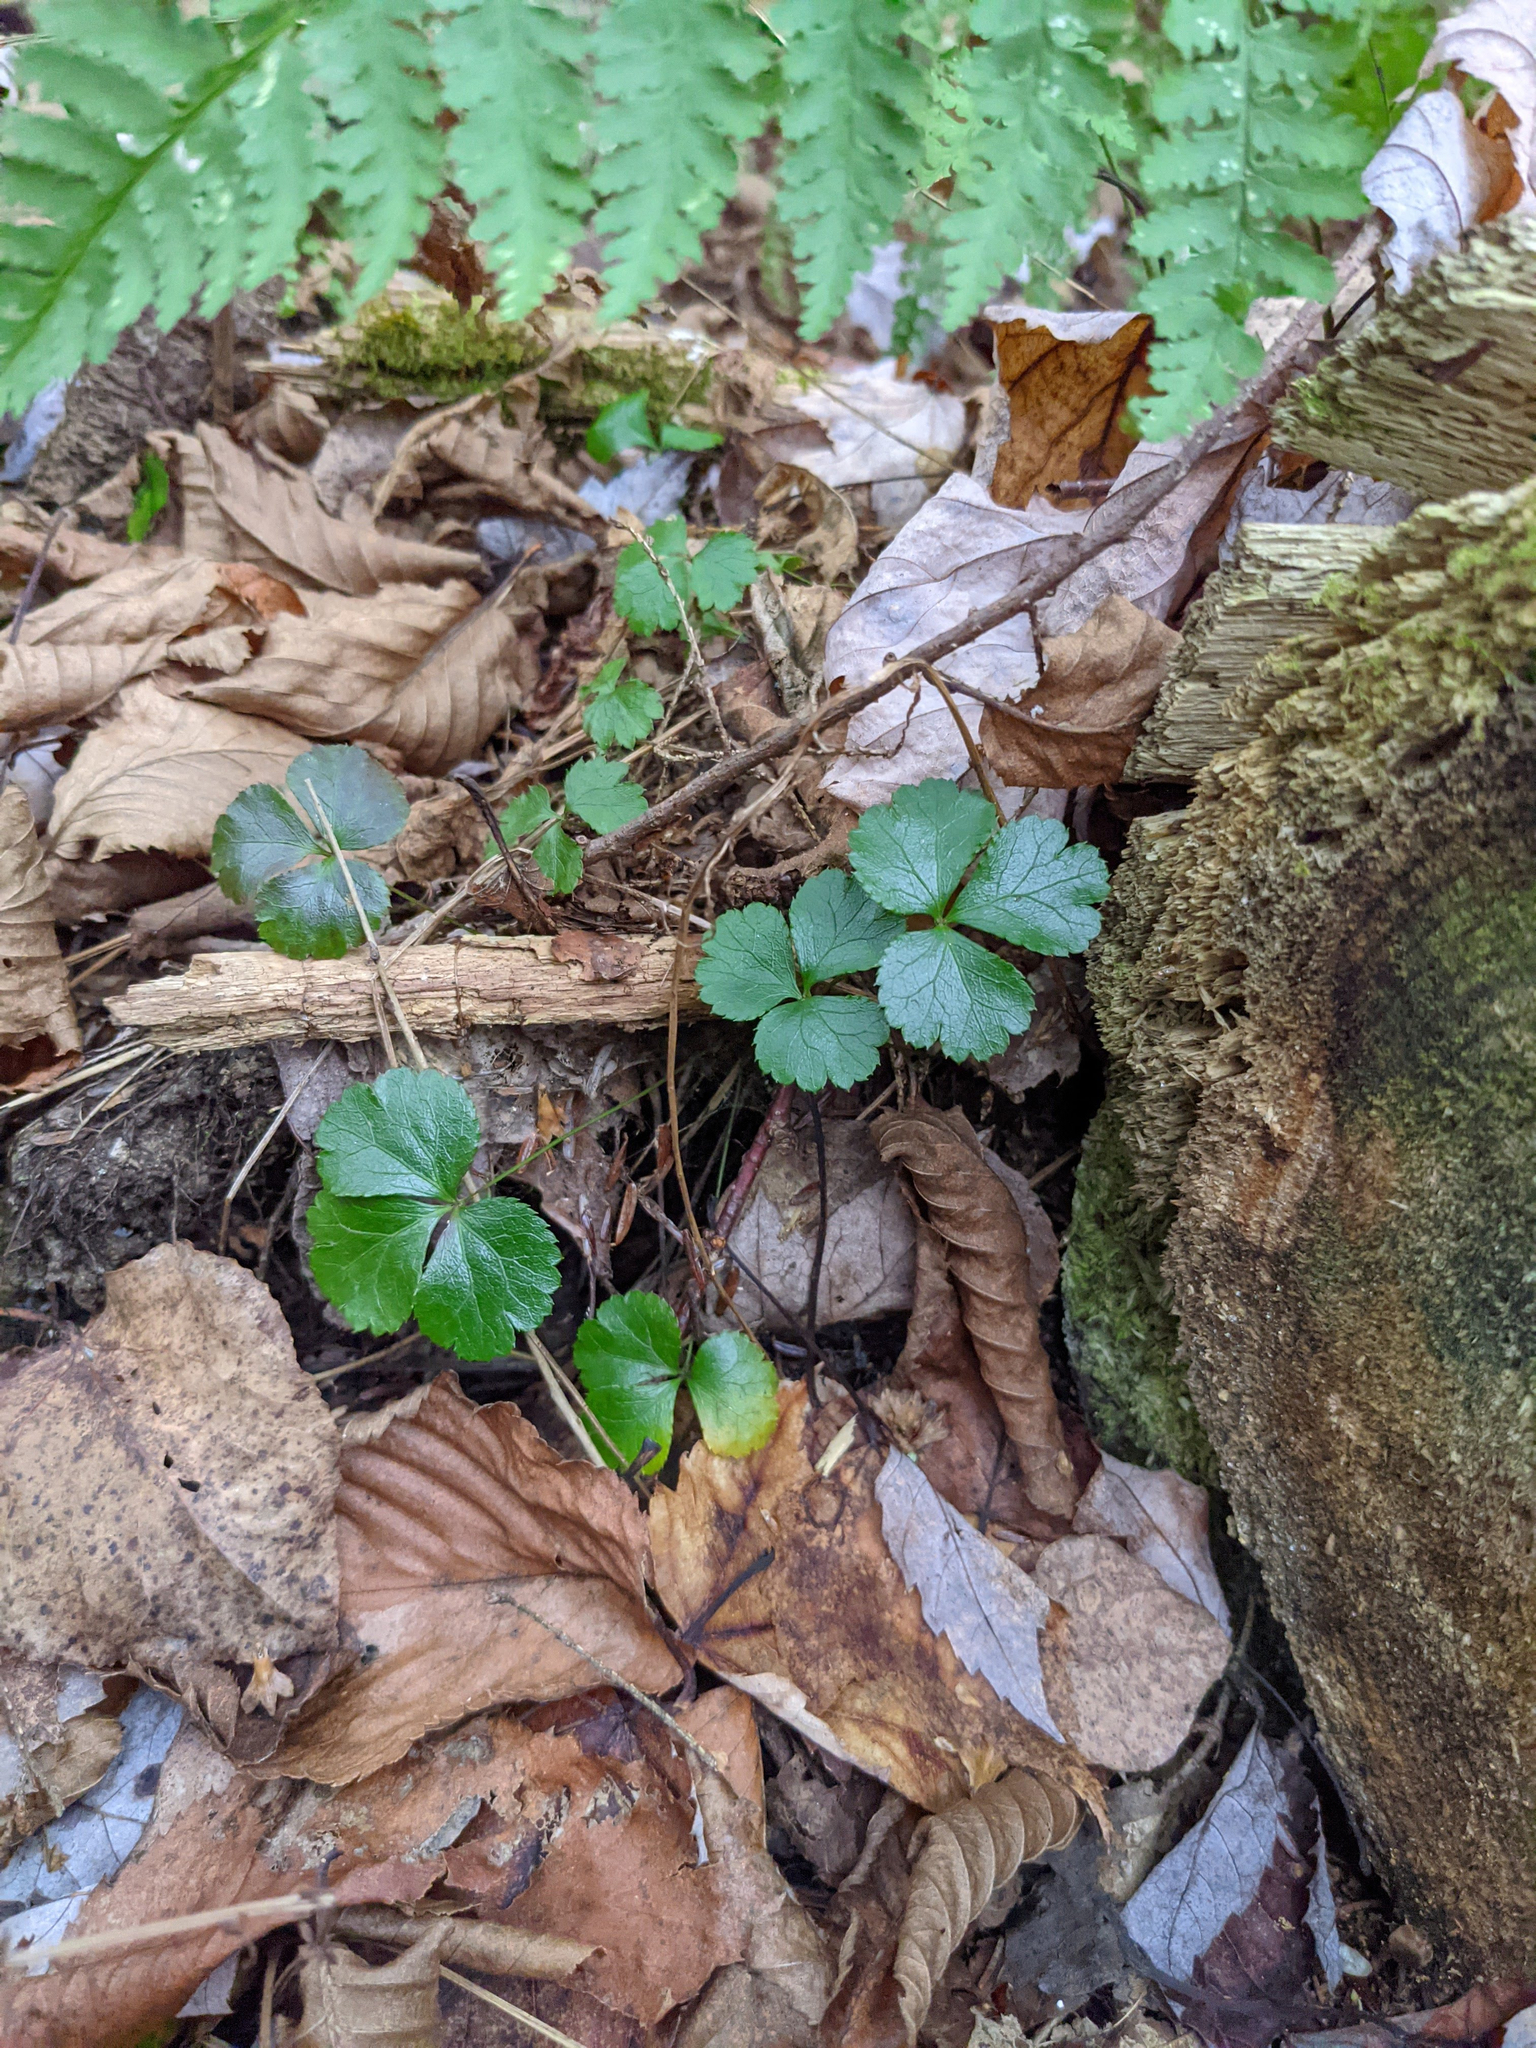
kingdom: Plantae
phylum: Tracheophyta
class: Magnoliopsida
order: Ranunculales
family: Ranunculaceae
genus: Coptis
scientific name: Coptis trifolia
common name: Canker-root
